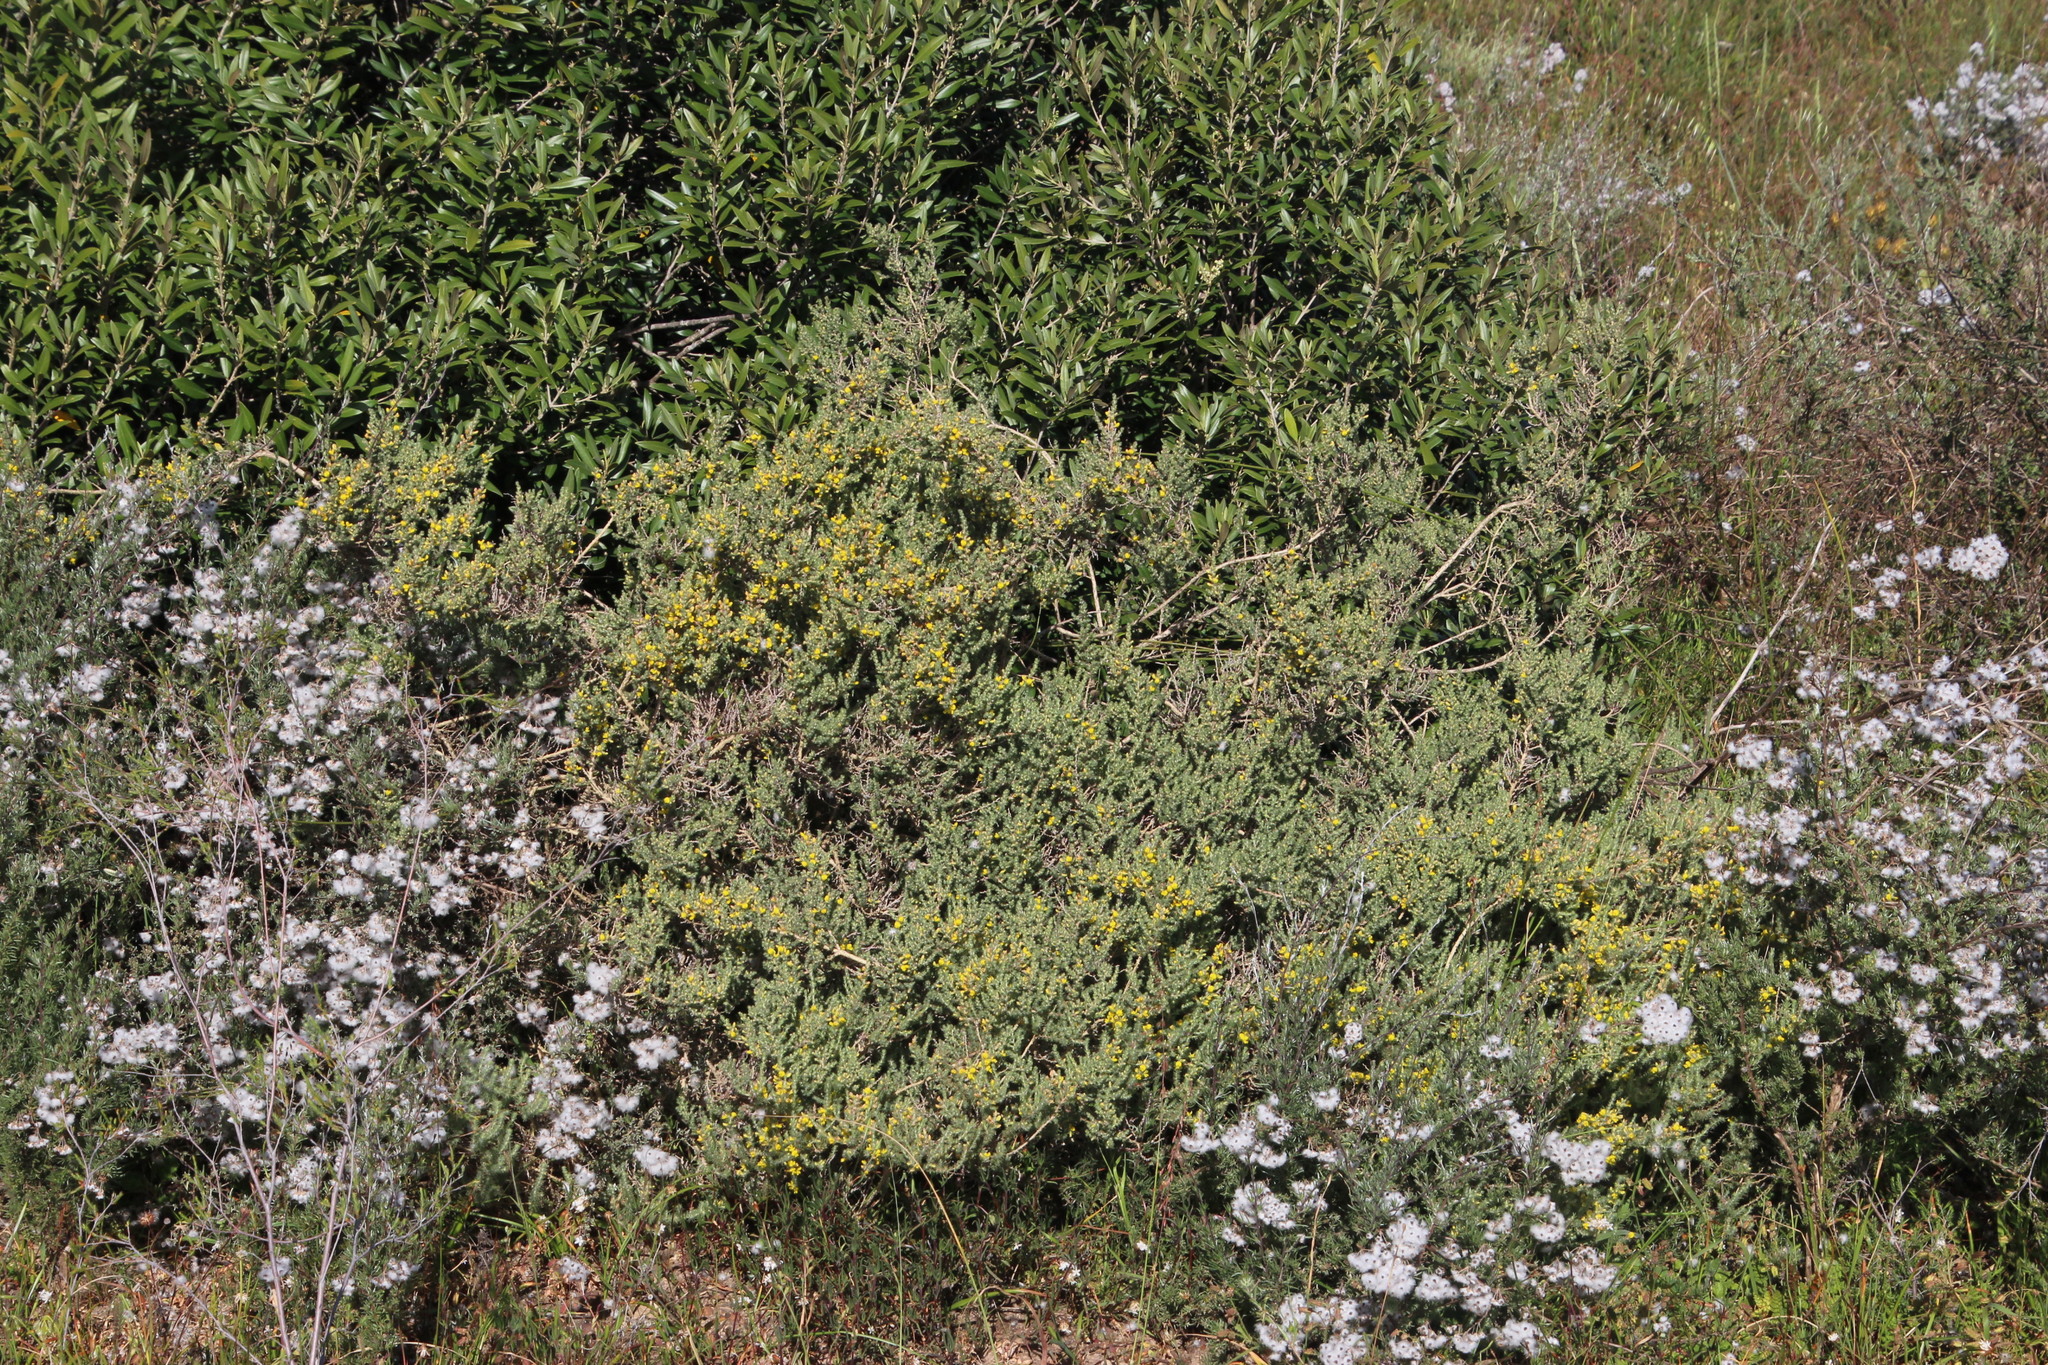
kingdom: Plantae
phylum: Tracheophyta
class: Magnoliopsida
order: Fabales
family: Fabaceae
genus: Aspalathus
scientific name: Aspalathus flexuosa
